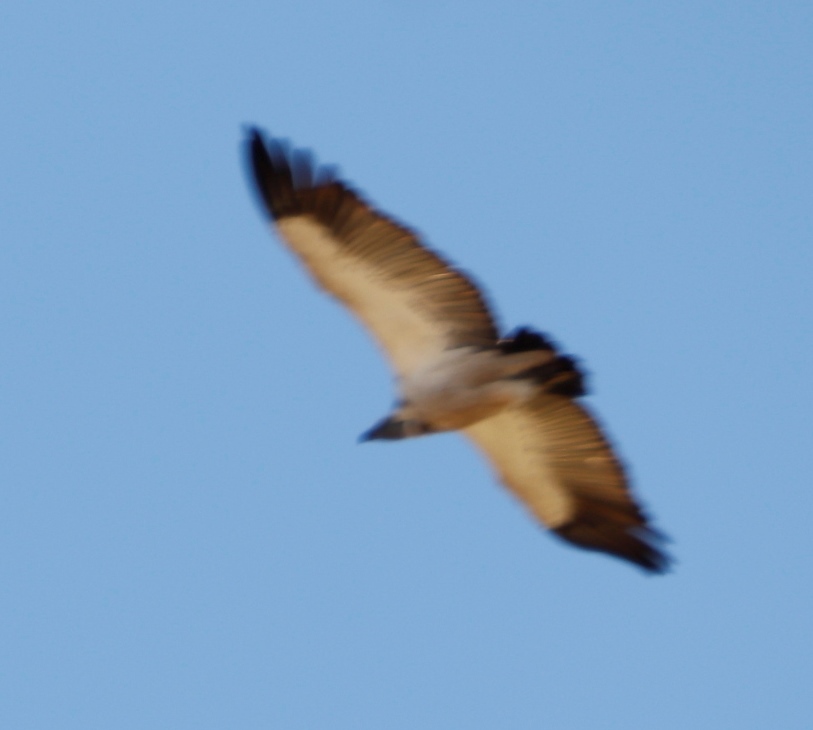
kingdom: Animalia
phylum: Chordata
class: Aves
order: Accipitriformes
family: Accipitridae
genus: Gyps
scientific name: Gyps coprotheres
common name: Cape vulture
